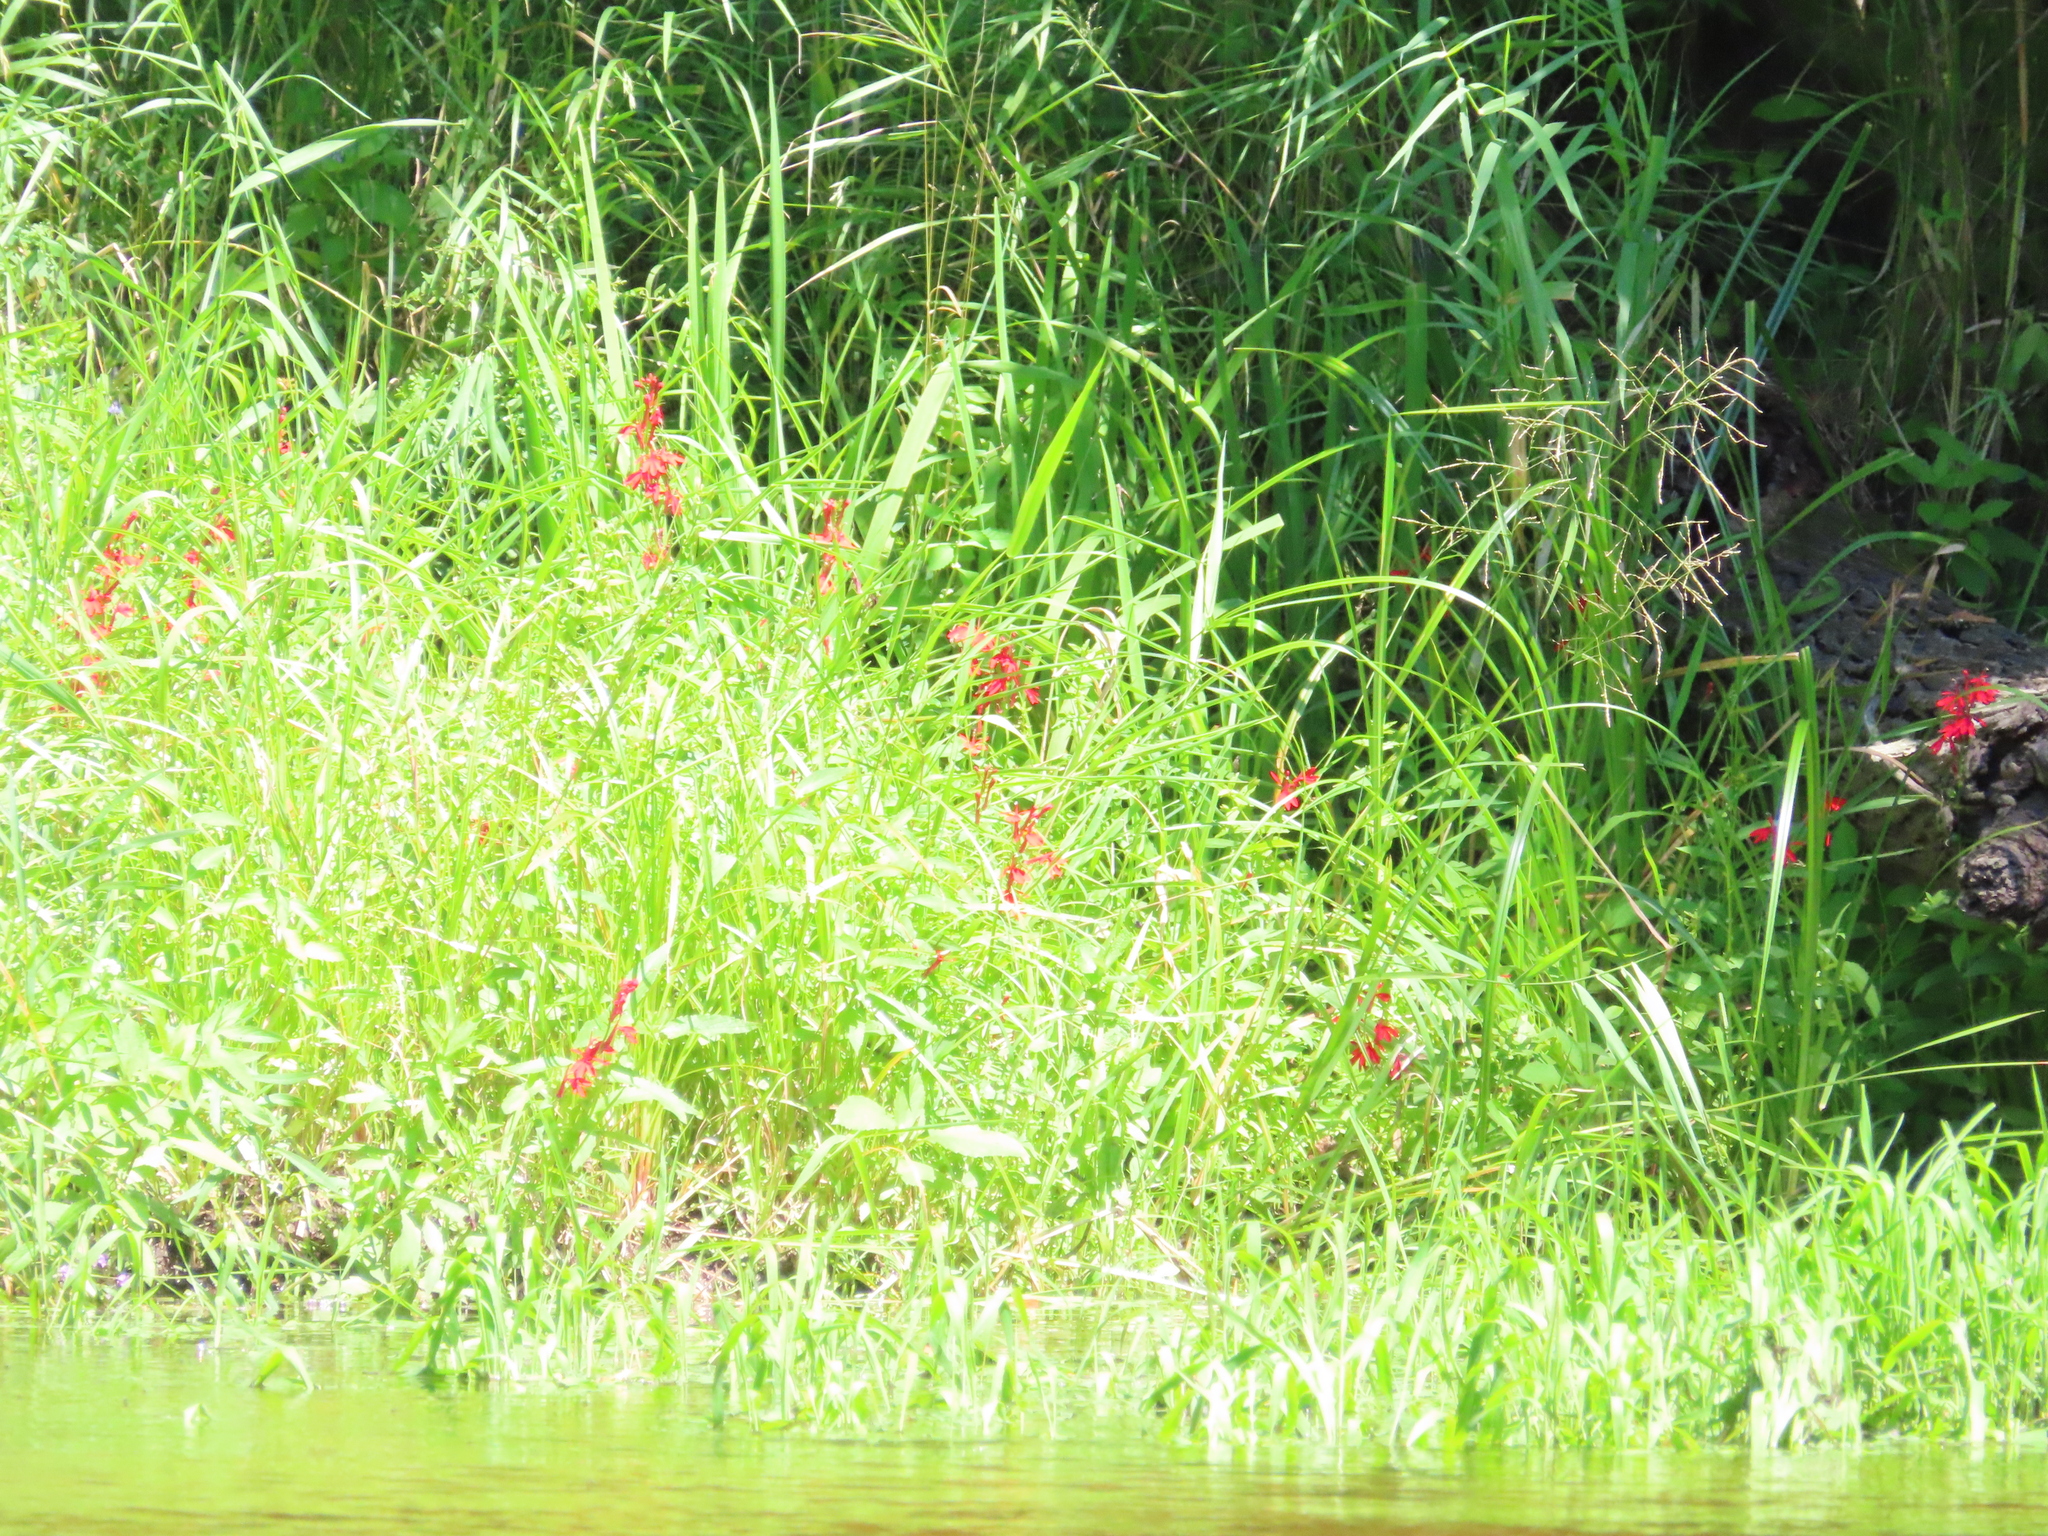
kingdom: Plantae
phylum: Tracheophyta
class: Magnoliopsida
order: Asterales
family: Campanulaceae
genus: Lobelia
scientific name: Lobelia cardinalis
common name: Cardinal flower
